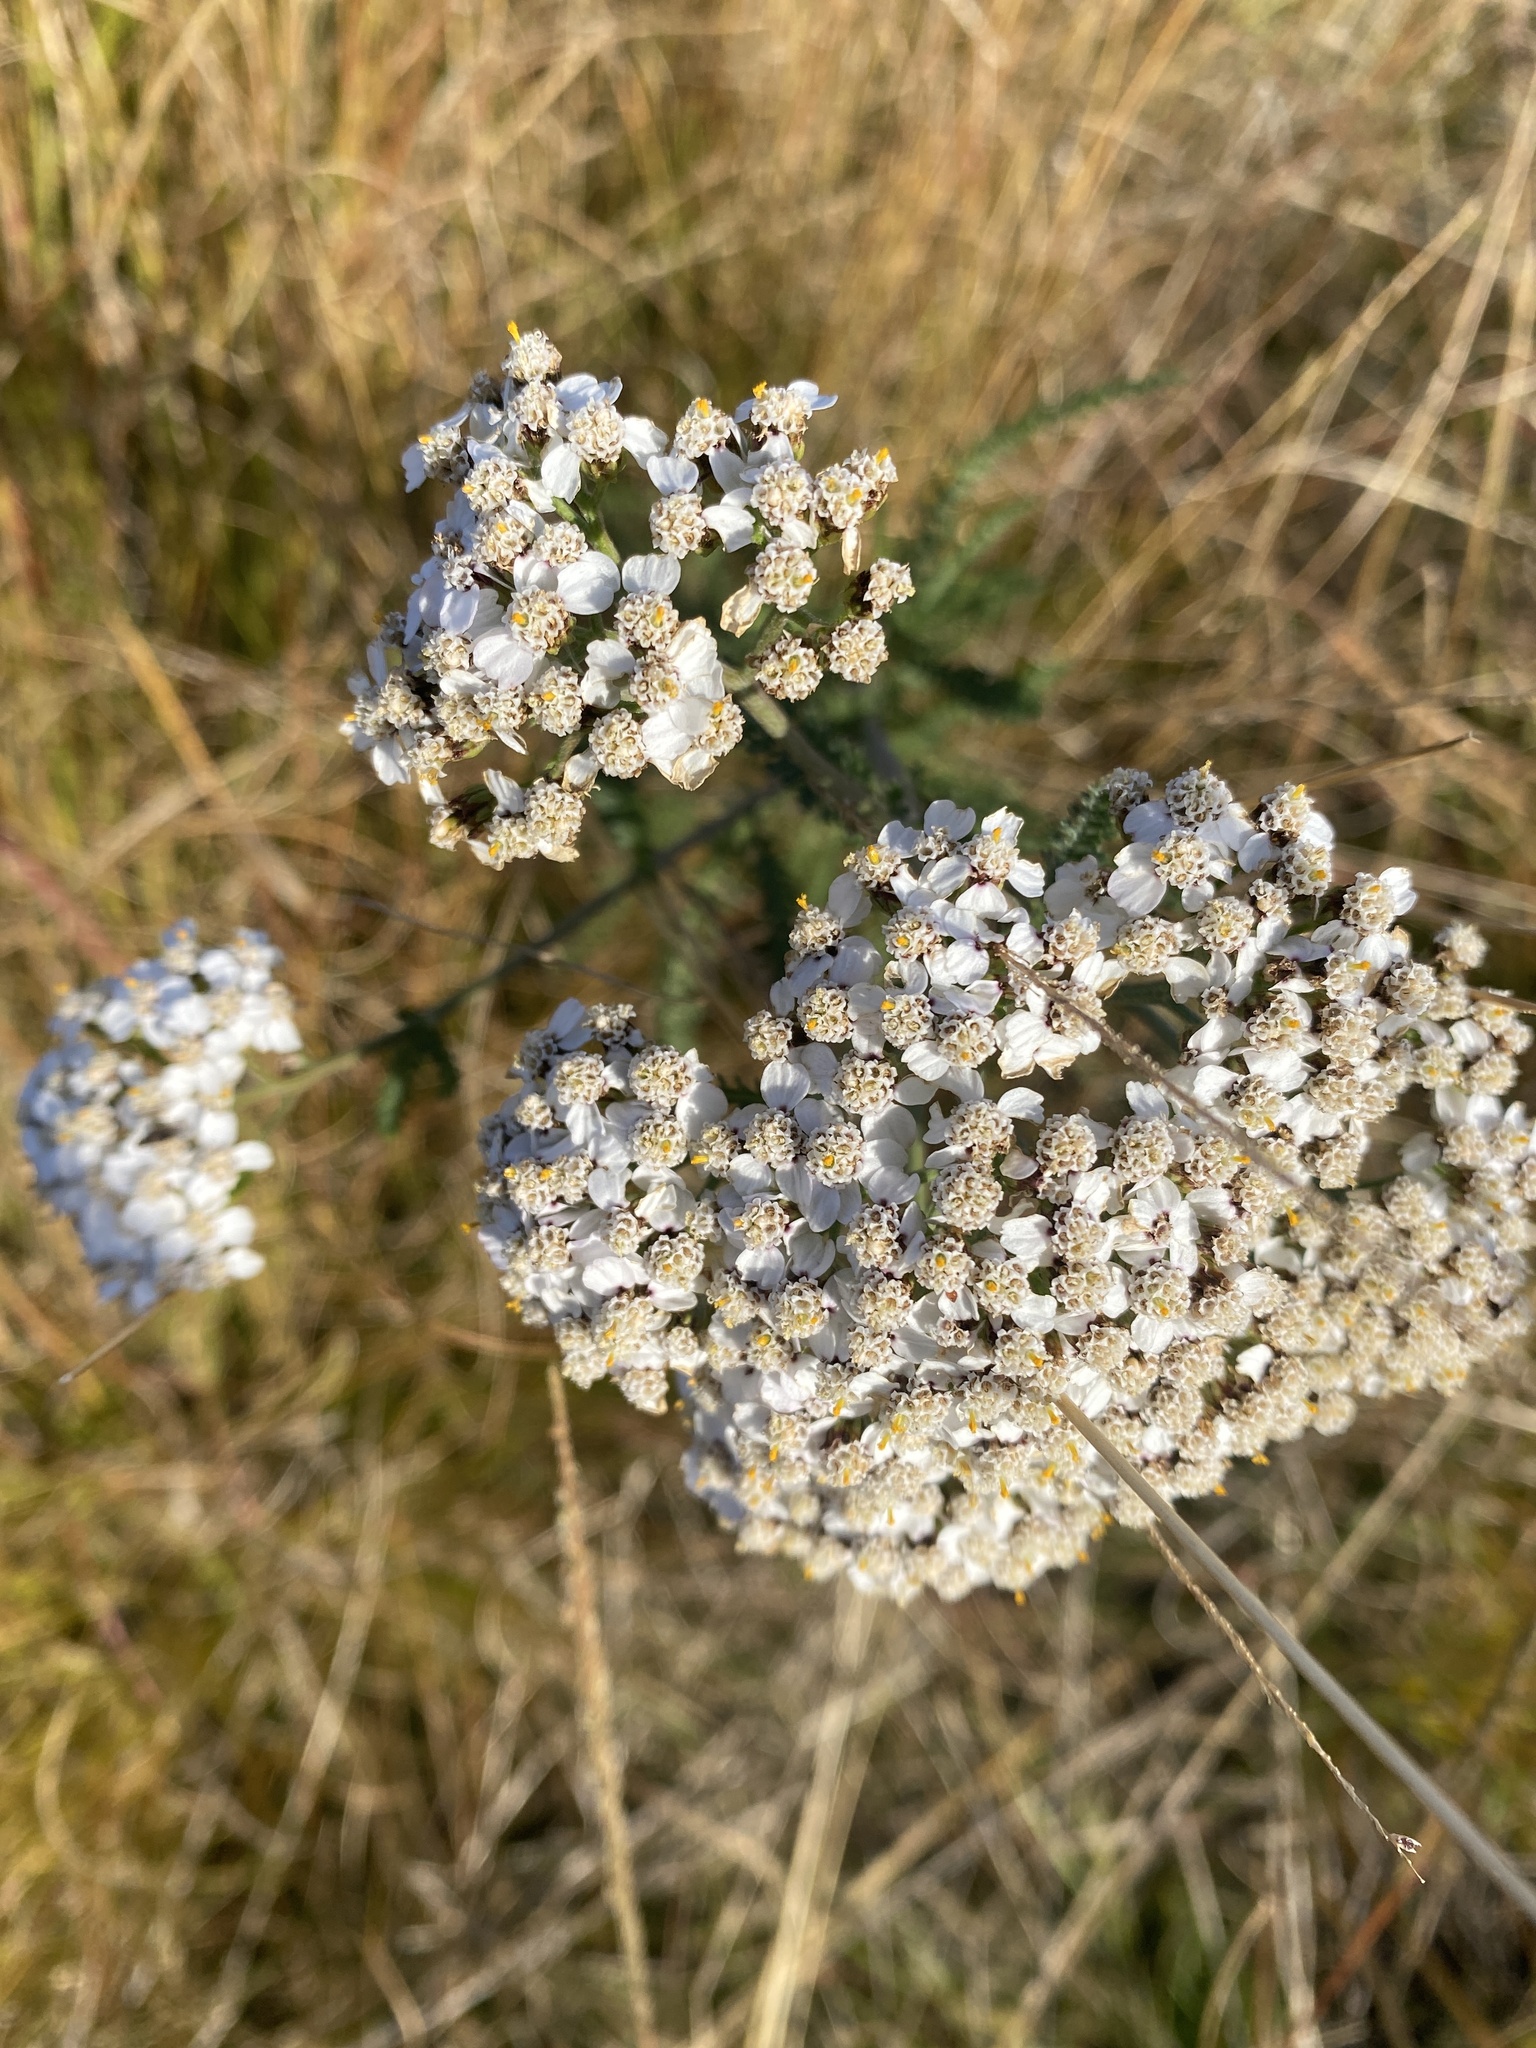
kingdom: Plantae
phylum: Tracheophyta
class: Magnoliopsida
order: Asterales
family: Asteraceae
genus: Achillea
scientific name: Achillea millefolium
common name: Yarrow
